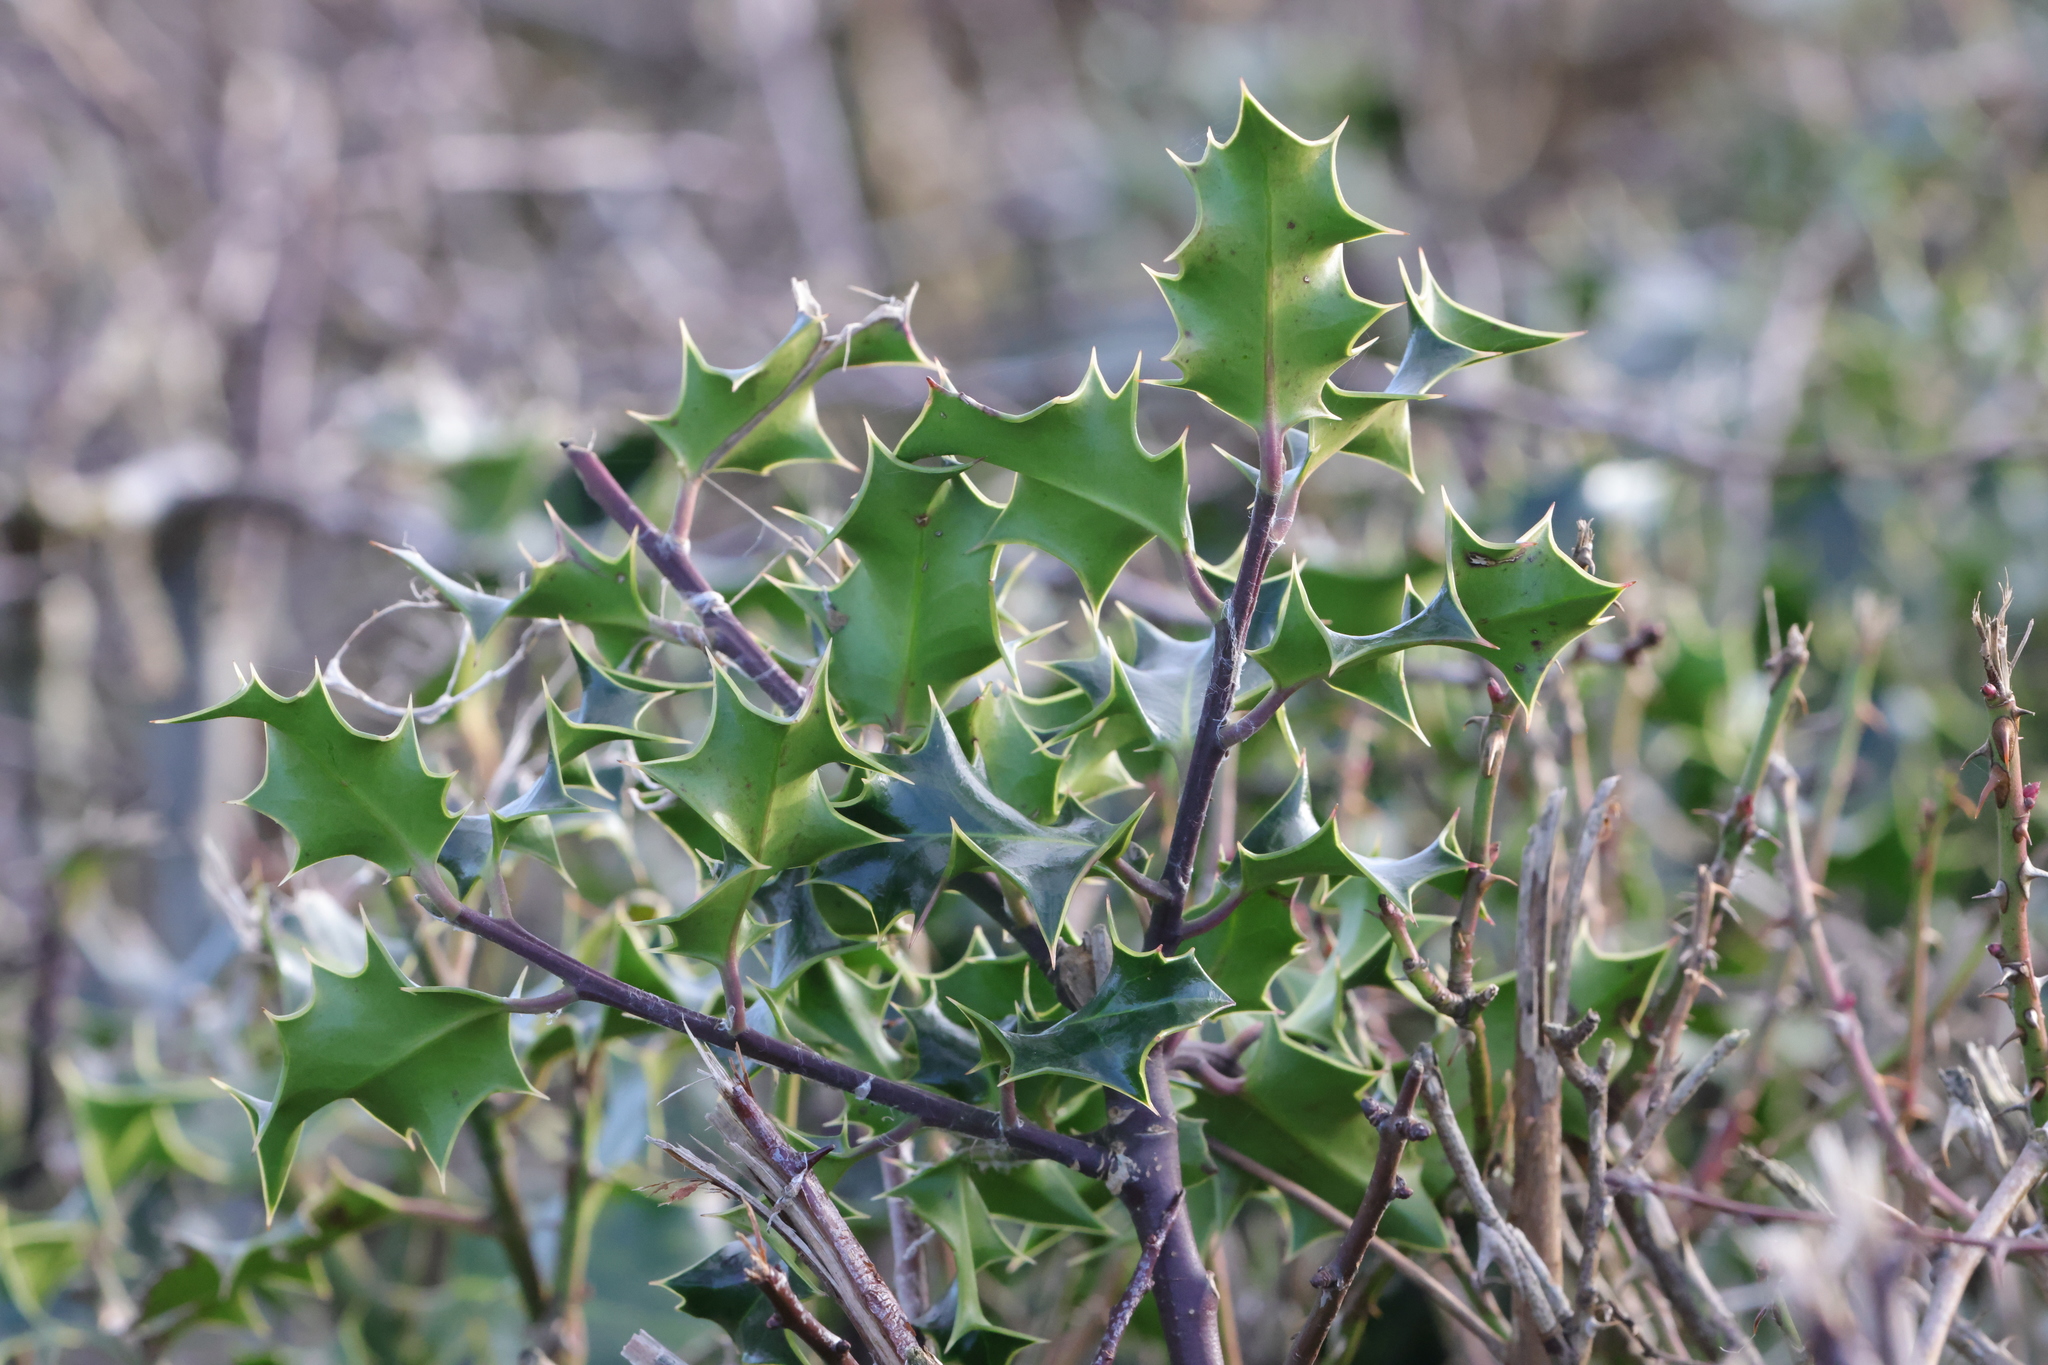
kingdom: Plantae
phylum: Tracheophyta
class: Magnoliopsida
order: Aquifoliales
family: Aquifoliaceae
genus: Ilex
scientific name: Ilex aquifolium
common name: English holly
